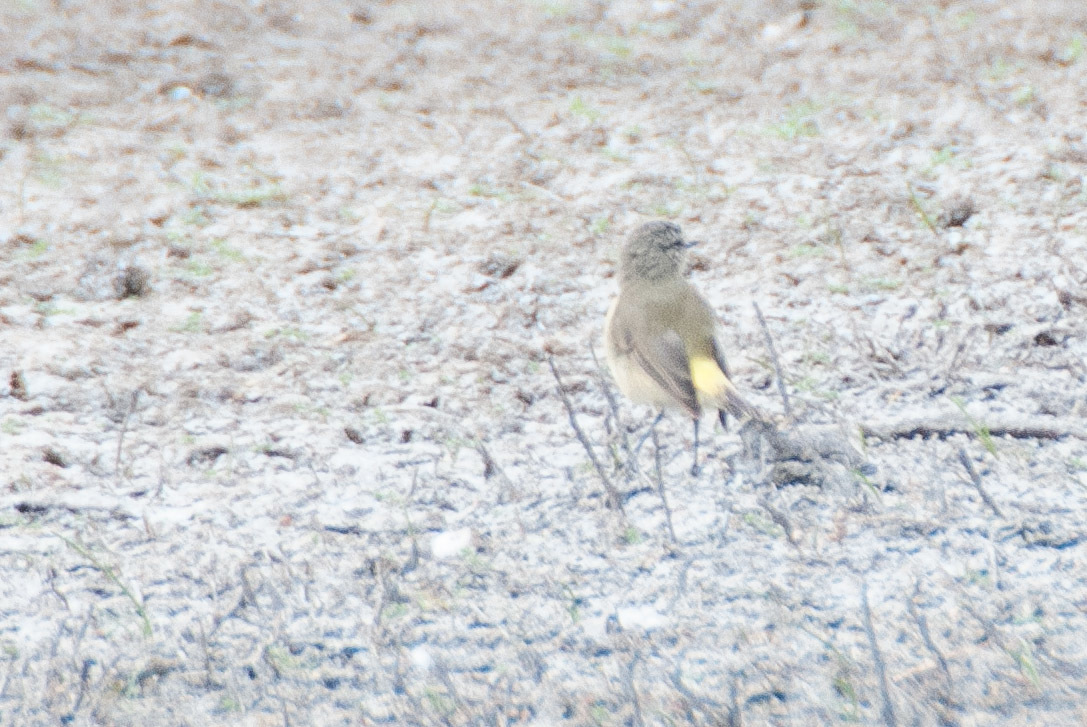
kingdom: Animalia
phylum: Chordata
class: Aves
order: Passeriformes
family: Acanthizidae
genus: Acanthiza
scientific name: Acanthiza chrysorrhoa
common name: Yellow-rumped thornbill
